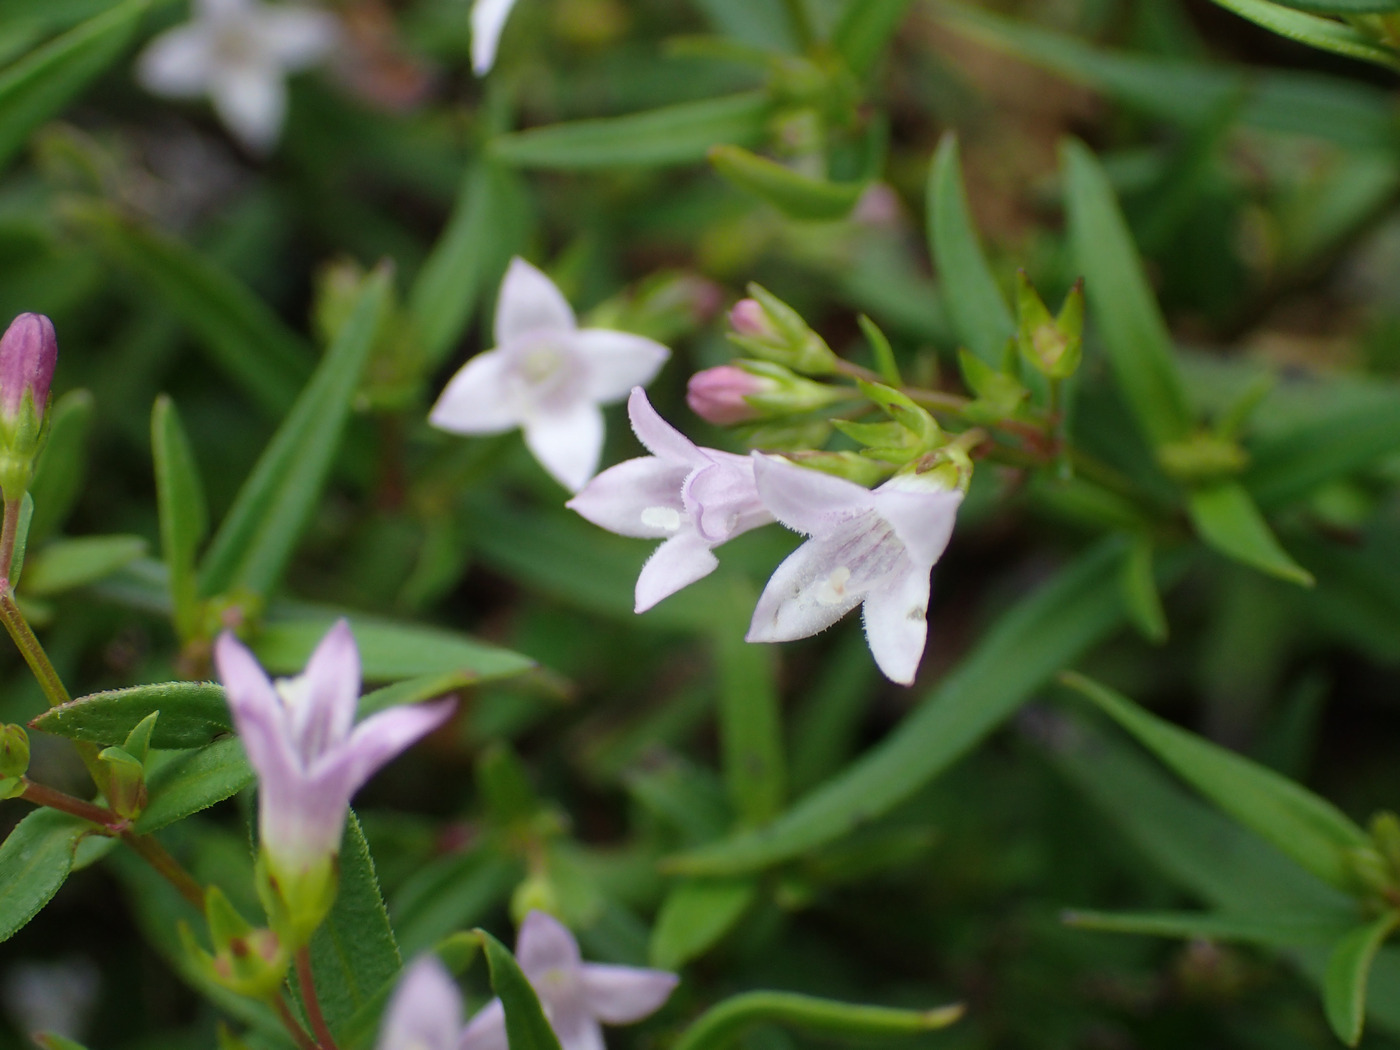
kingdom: Plantae
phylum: Tracheophyta
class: Magnoliopsida
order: Gentianales
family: Rubiaceae
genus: Houstonia
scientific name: Houstonia longifolia
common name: Long-leaved bluets
